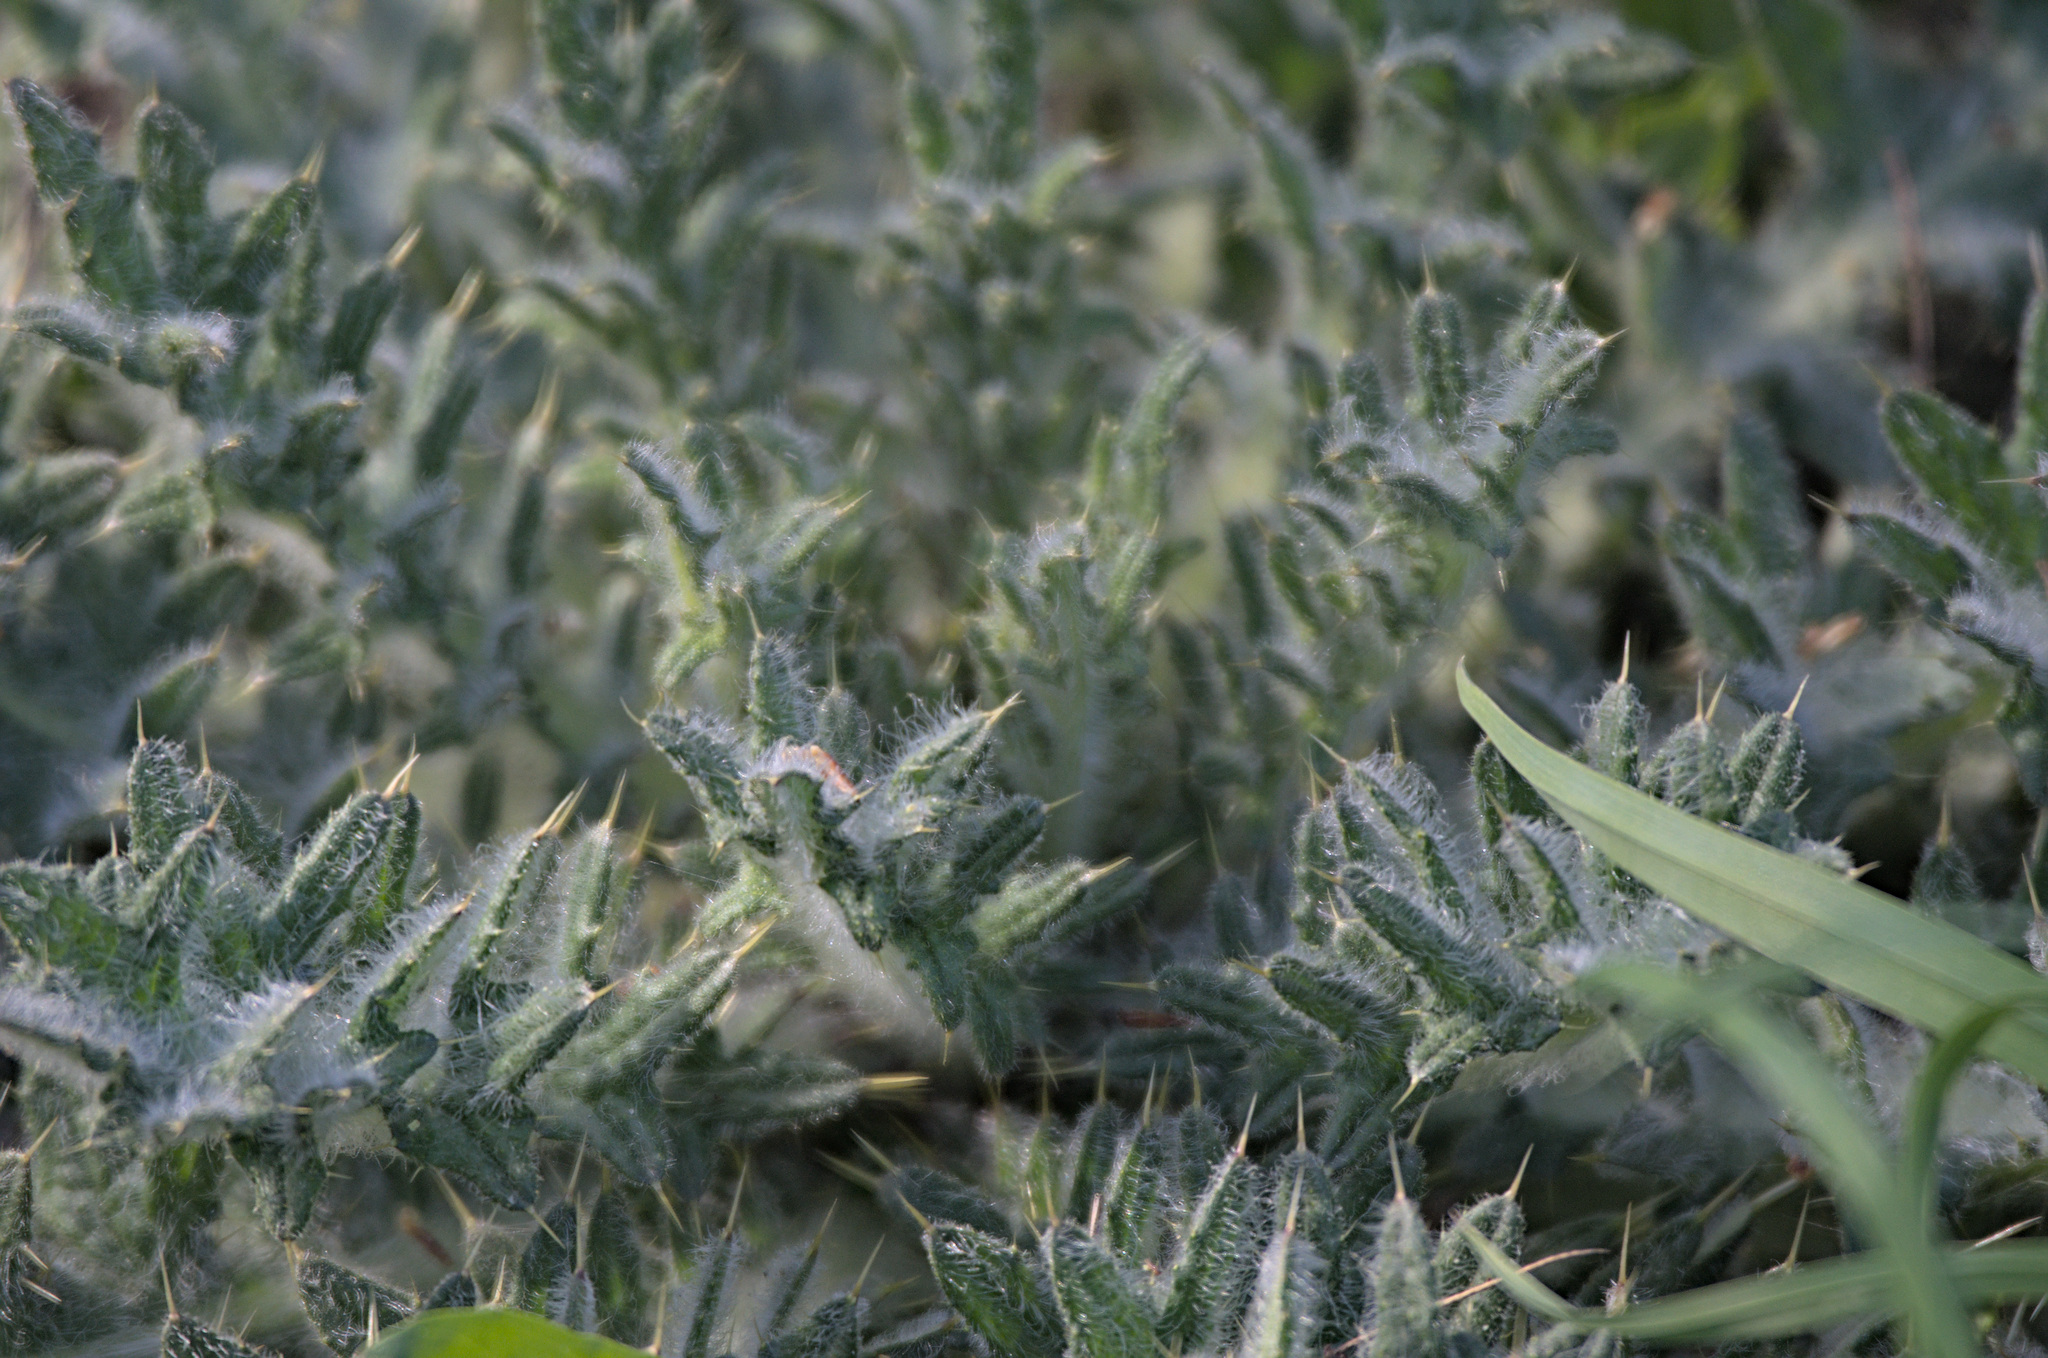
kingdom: Plantae
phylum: Tracheophyta
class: Magnoliopsida
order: Asterales
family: Asteraceae
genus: Cirsium
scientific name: Cirsium vulgare
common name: Bull thistle
